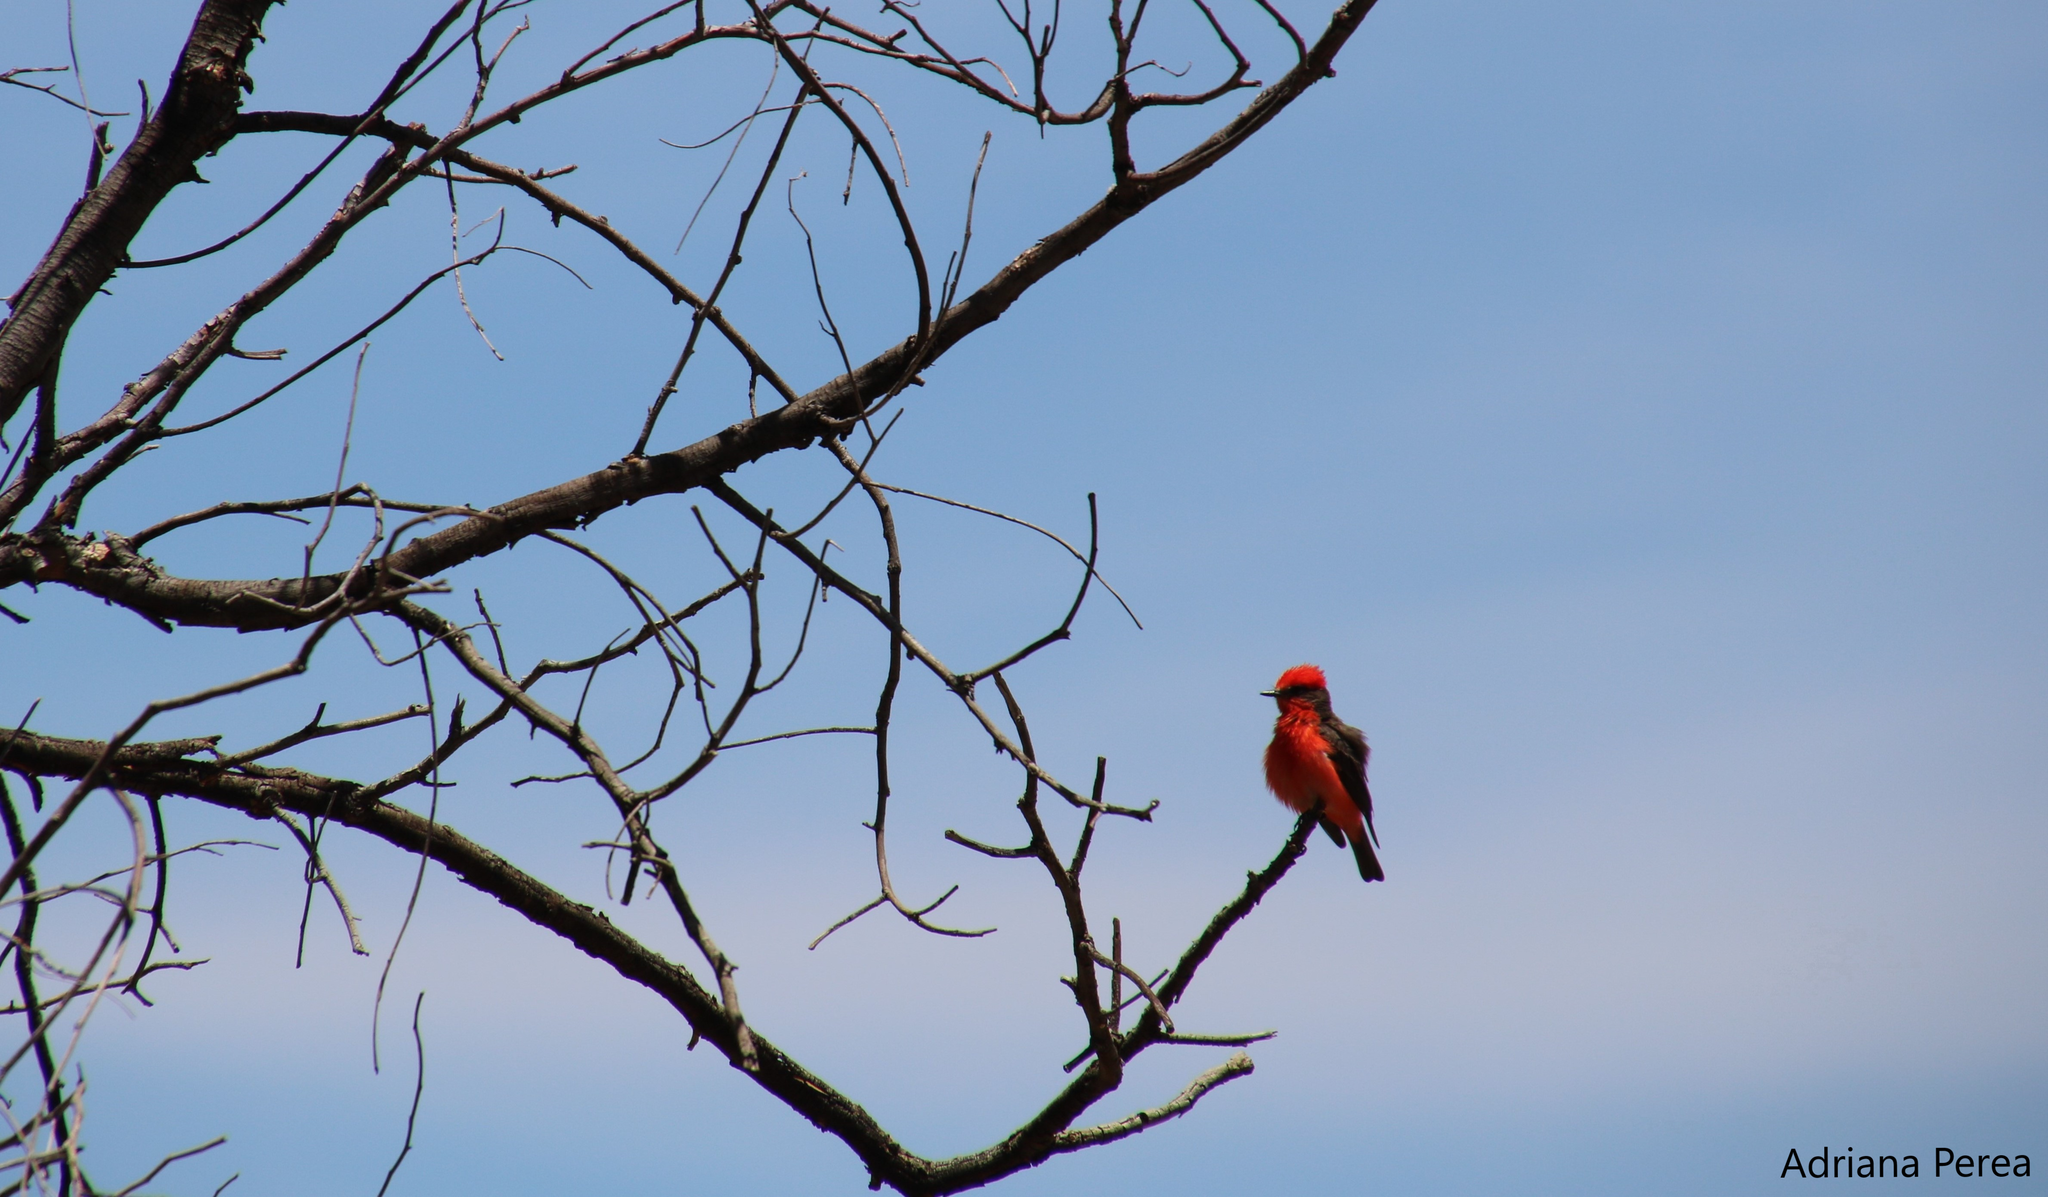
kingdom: Animalia
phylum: Chordata
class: Aves
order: Passeriformes
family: Tyrannidae
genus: Pyrocephalus
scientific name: Pyrocephalus rubinus
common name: Vermilion flycatcher
